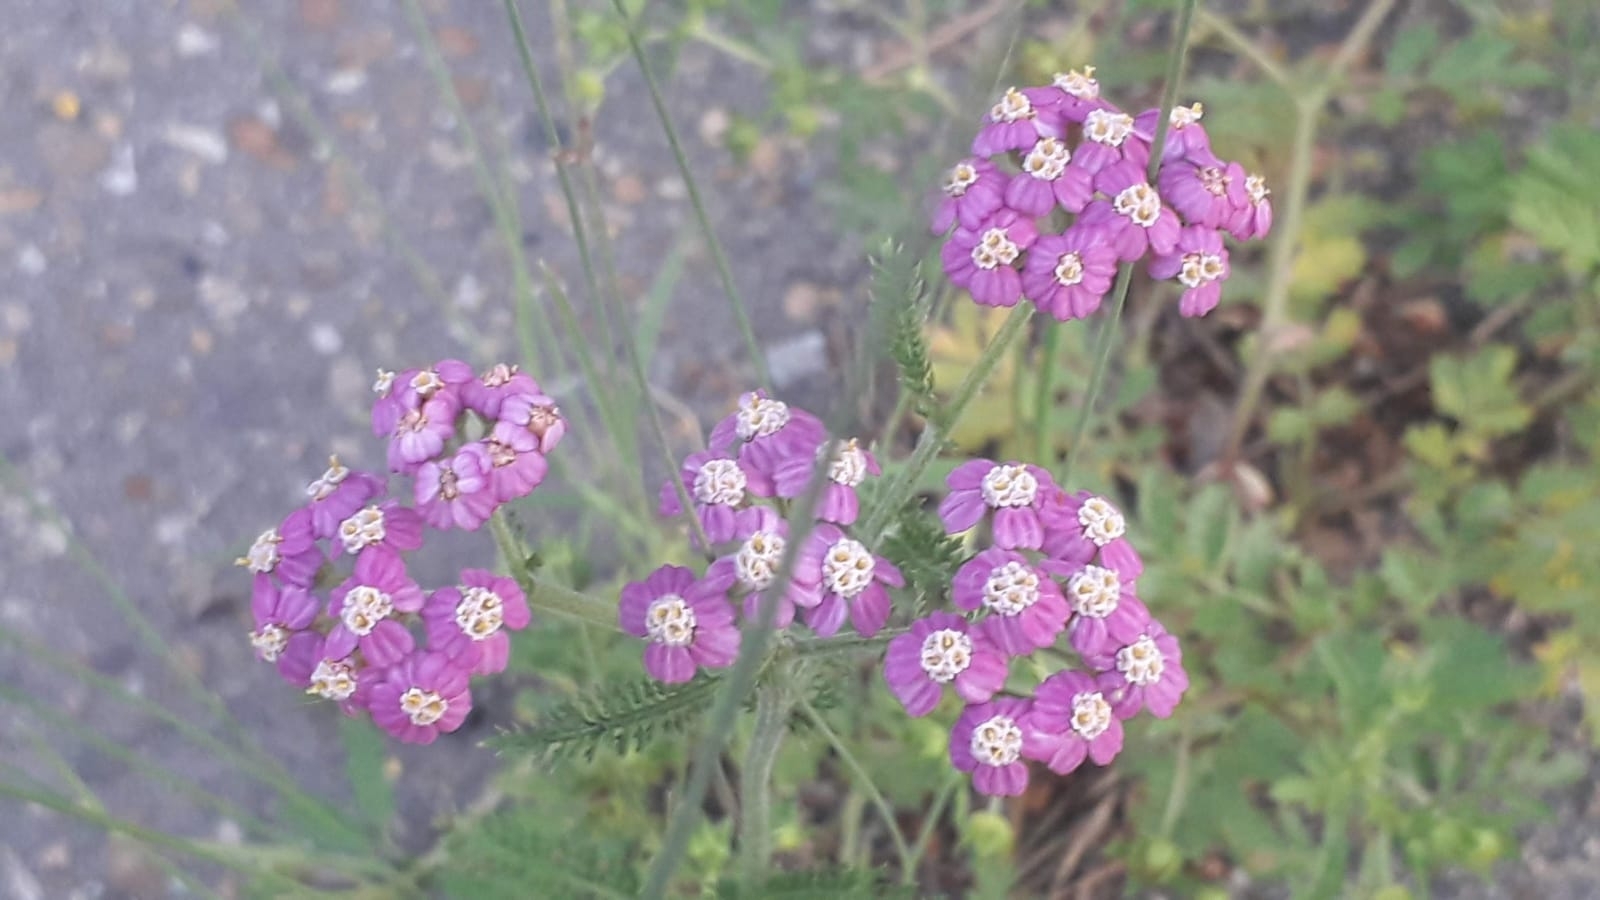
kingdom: Plantae
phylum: Tracheophyta
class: Magnoliopsida
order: Asterales
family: Asteraceae
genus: Achillea
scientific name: Achillea asiatica
